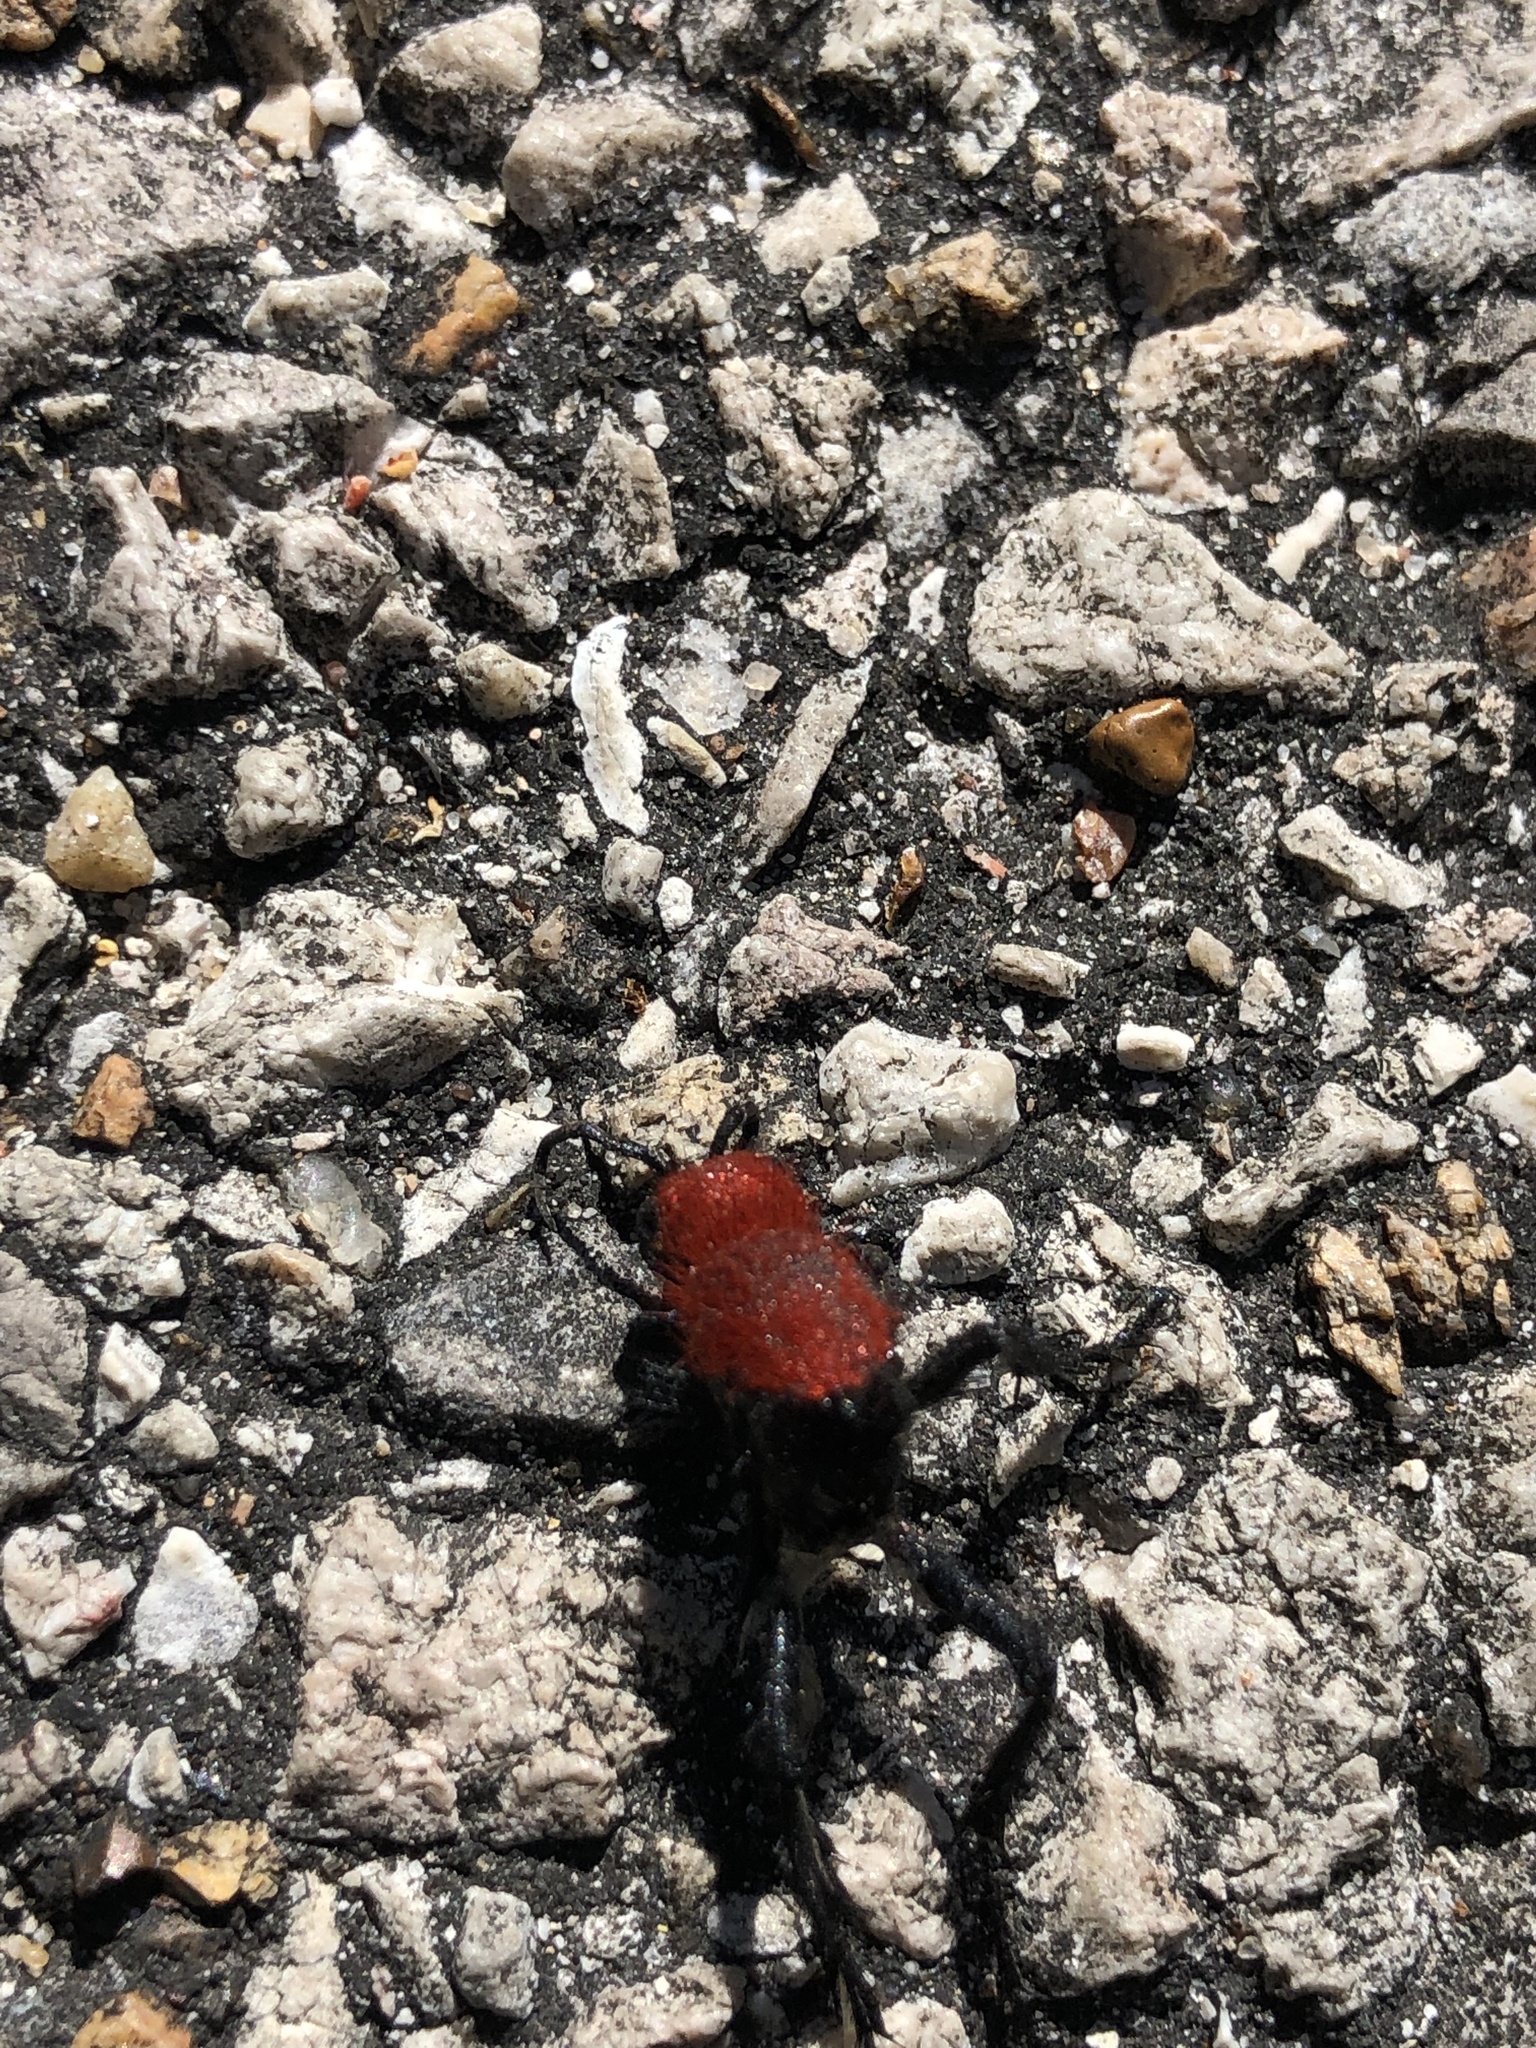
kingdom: Animalia
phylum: Arthropoda
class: Insecta
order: Hymenoptera
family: Mutillidae
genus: Dasymutilla
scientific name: Dasymutilla occidentalis
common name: Common eastern velvet ant
